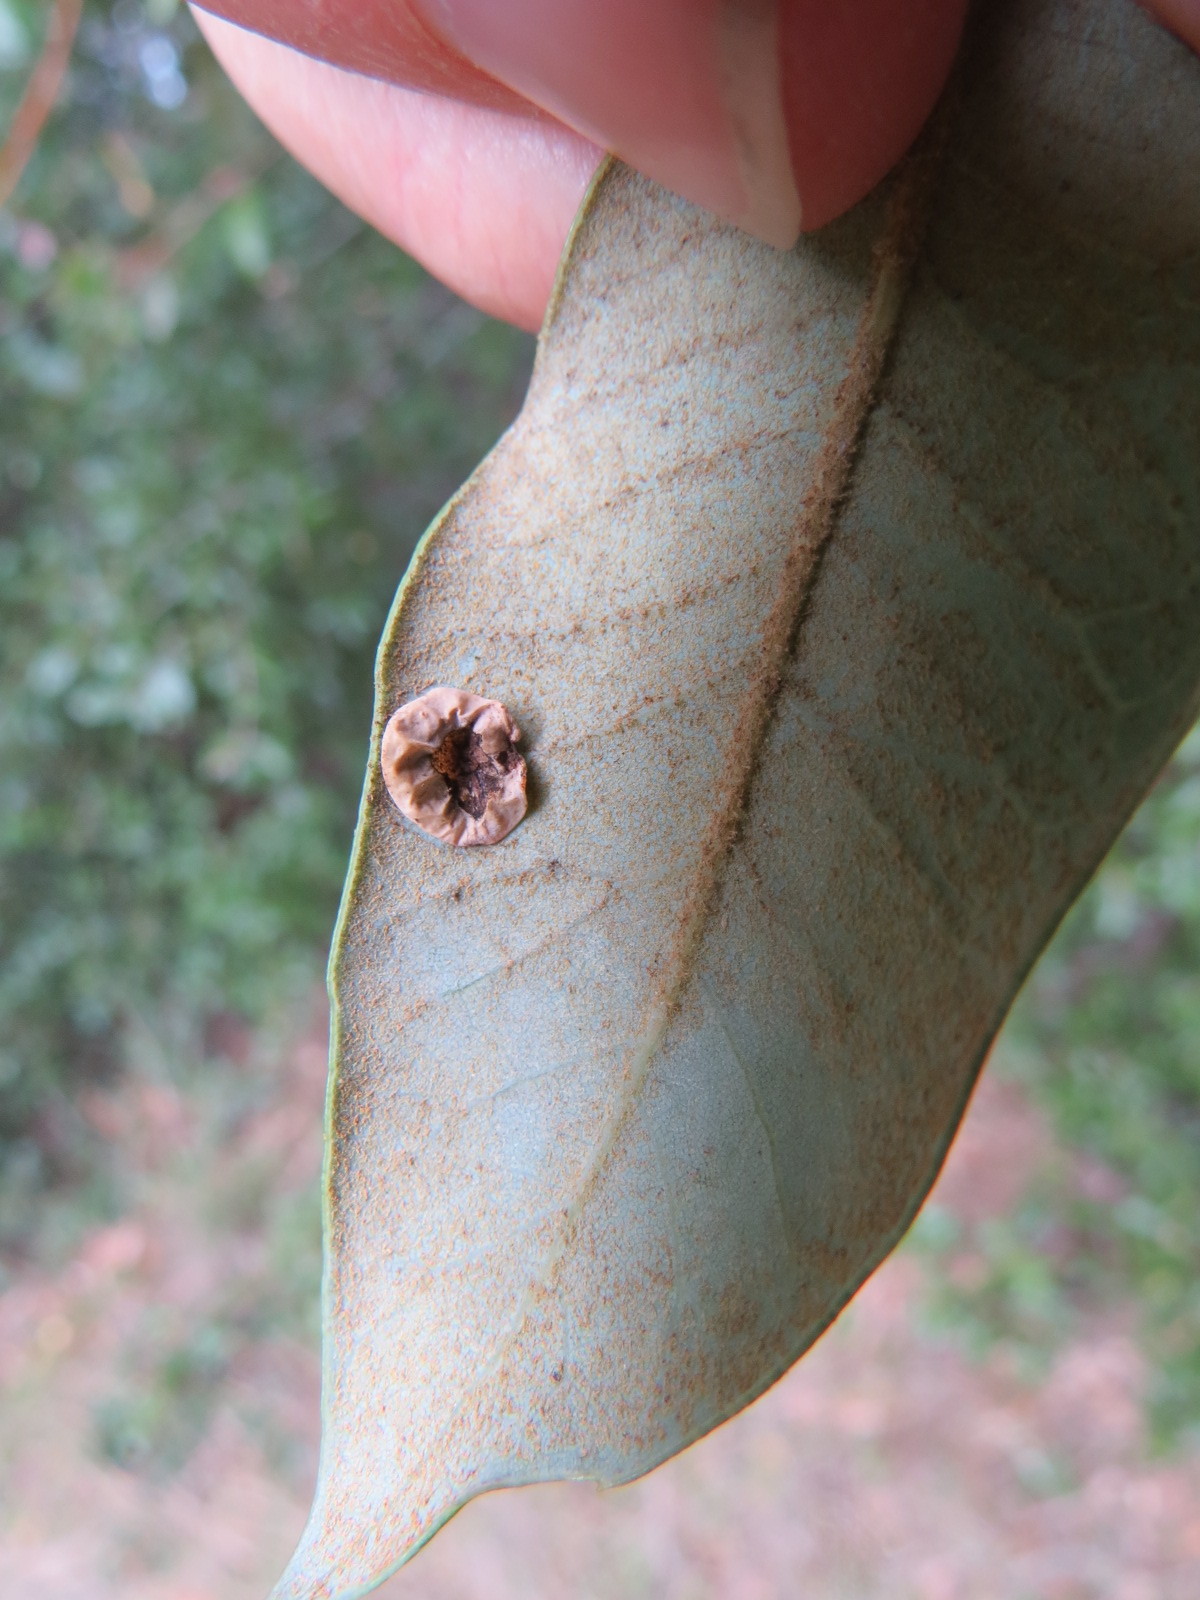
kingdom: Animalia
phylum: Arthropoda
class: Insecta
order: Hymenoptera
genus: Paracraspis
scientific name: Paracraspis
